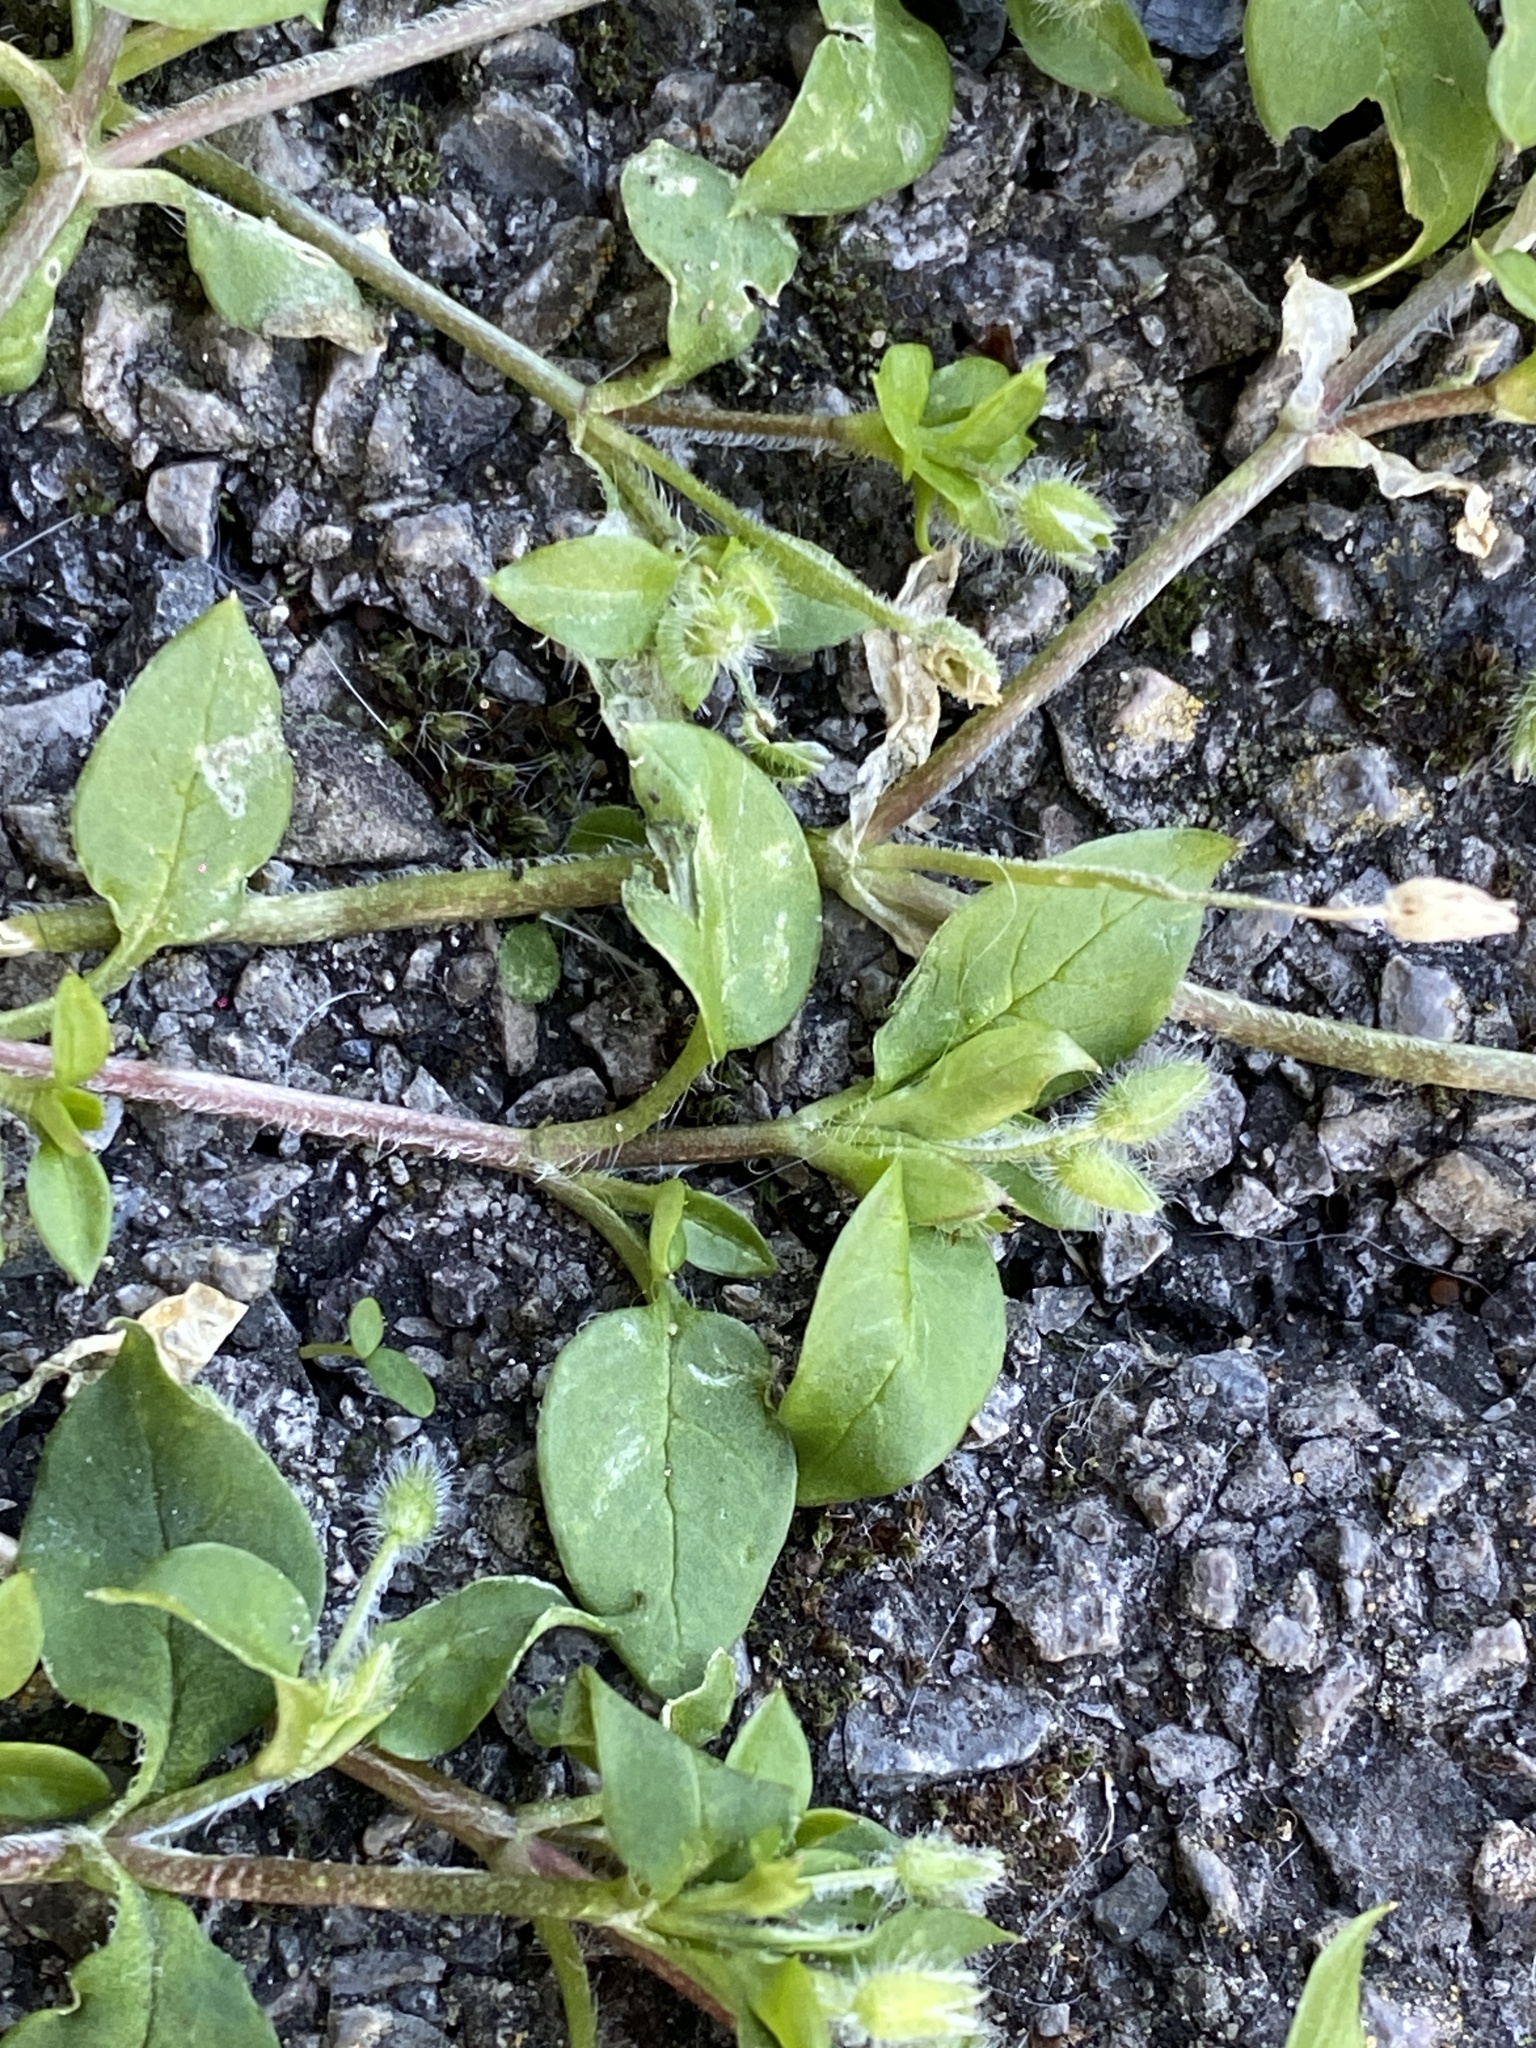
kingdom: Plantae
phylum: Tracheophyta
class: Magnoliopsida
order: Caryophyllales
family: Caryophyllaceae
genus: Stellaria
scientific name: Stellaria media
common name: Common chickweed
